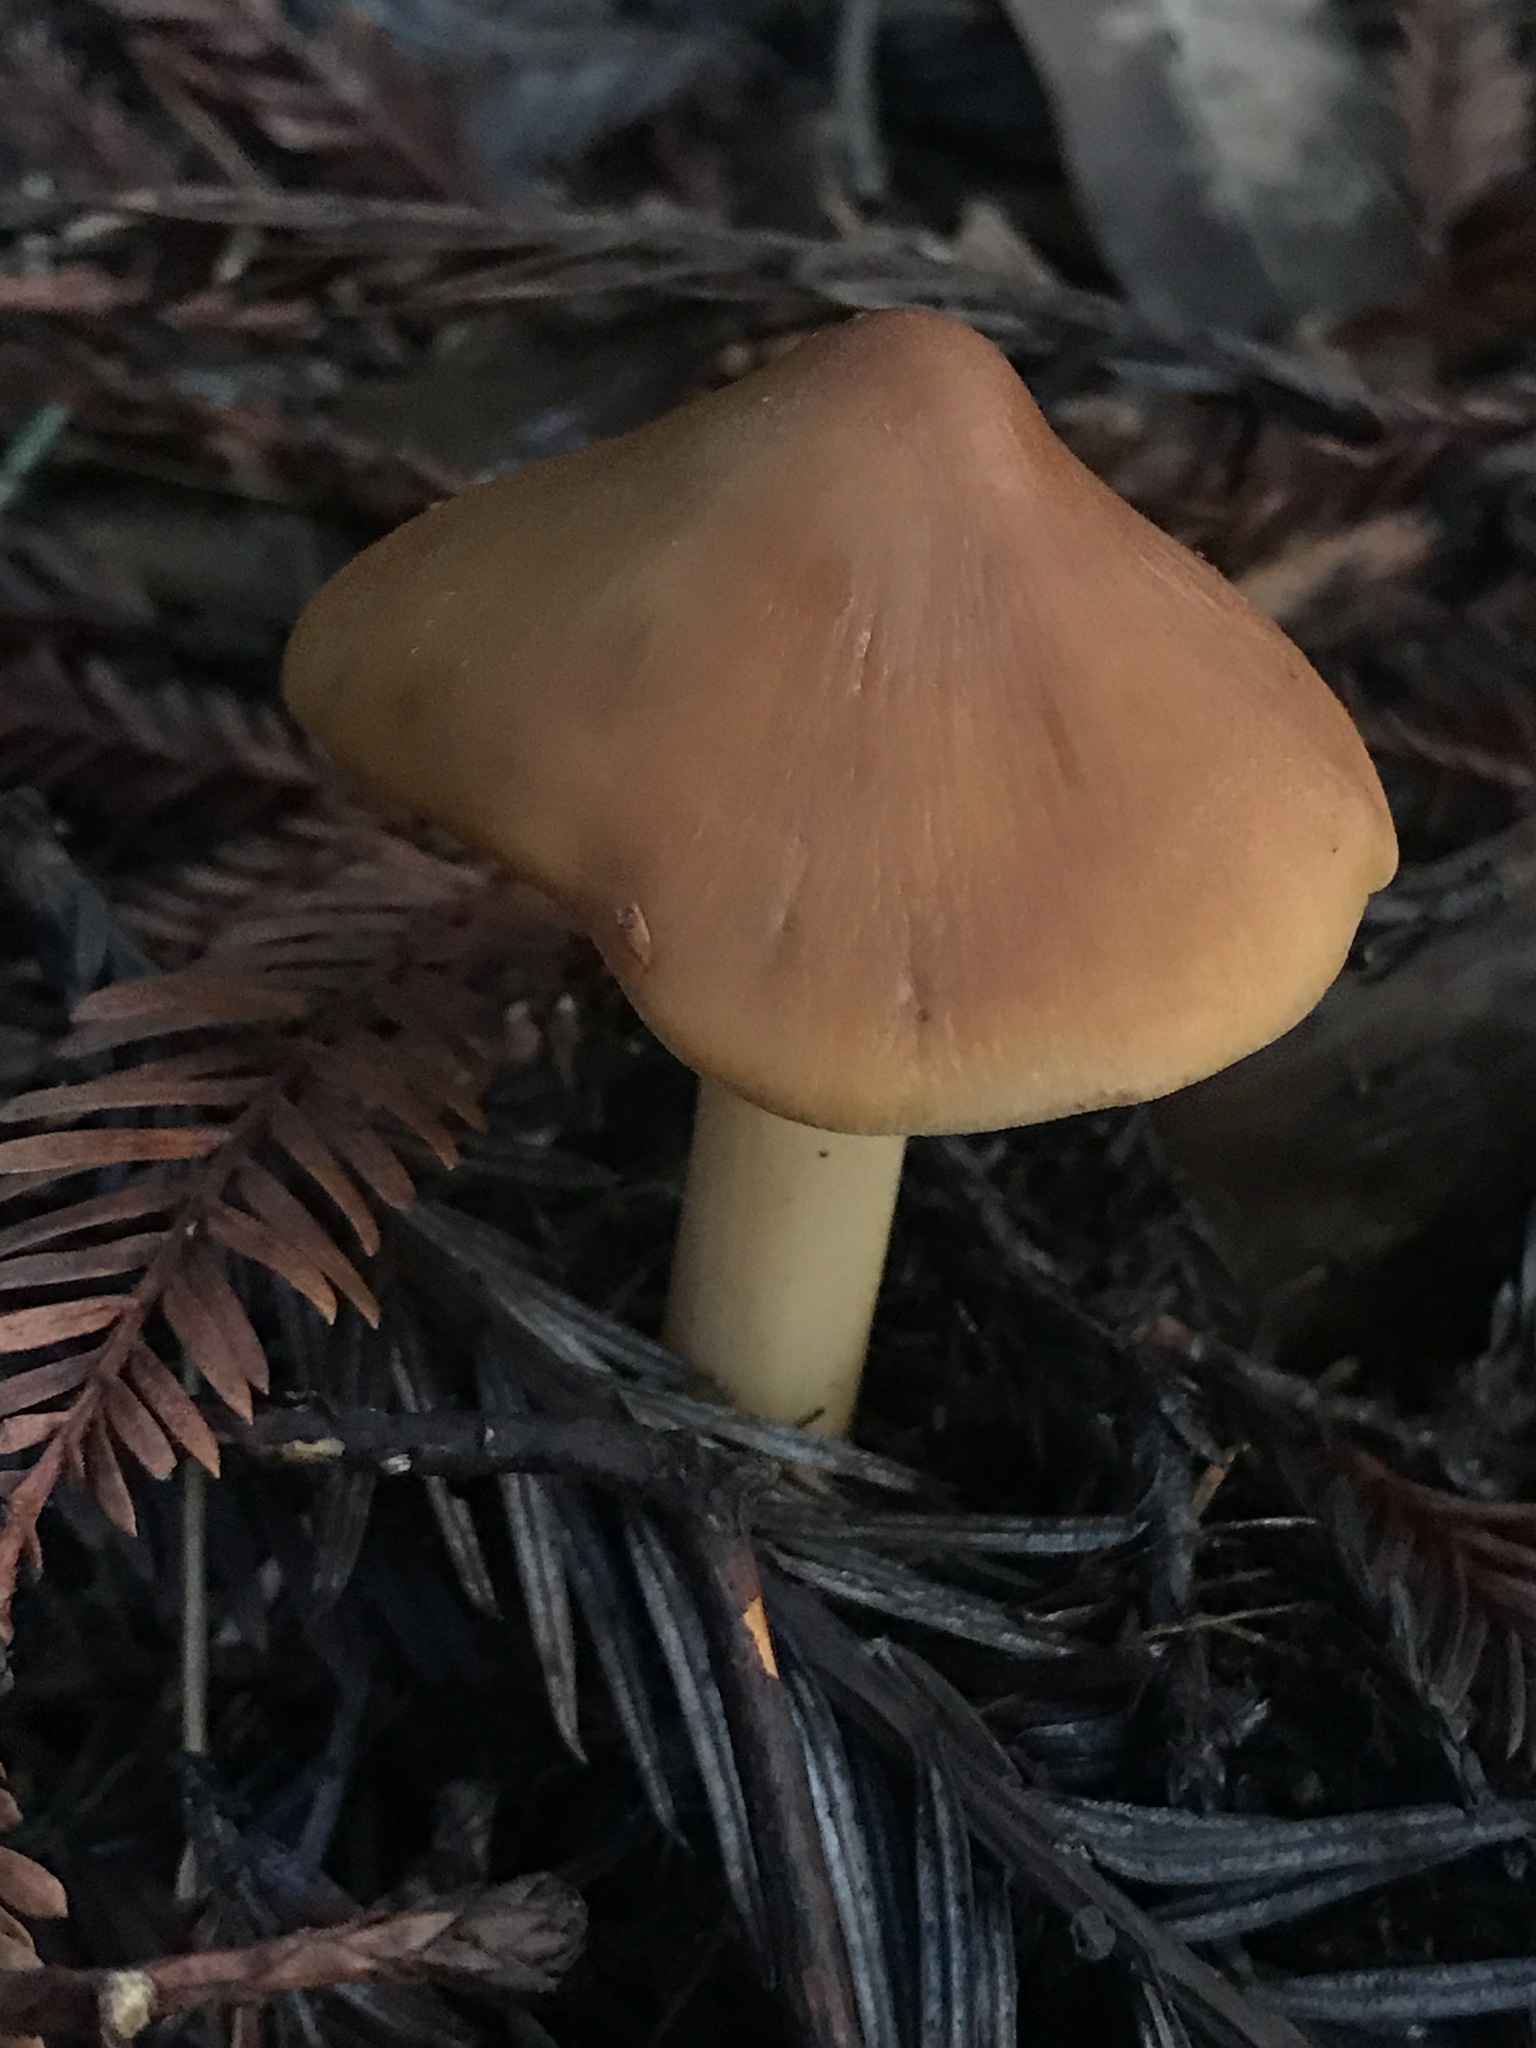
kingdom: Fungi
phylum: Basidiomycota
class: Agaricomycetes
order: Agaricales
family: Tricholomataceae
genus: Caulorhiza
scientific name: Caulorhiza umbonata
